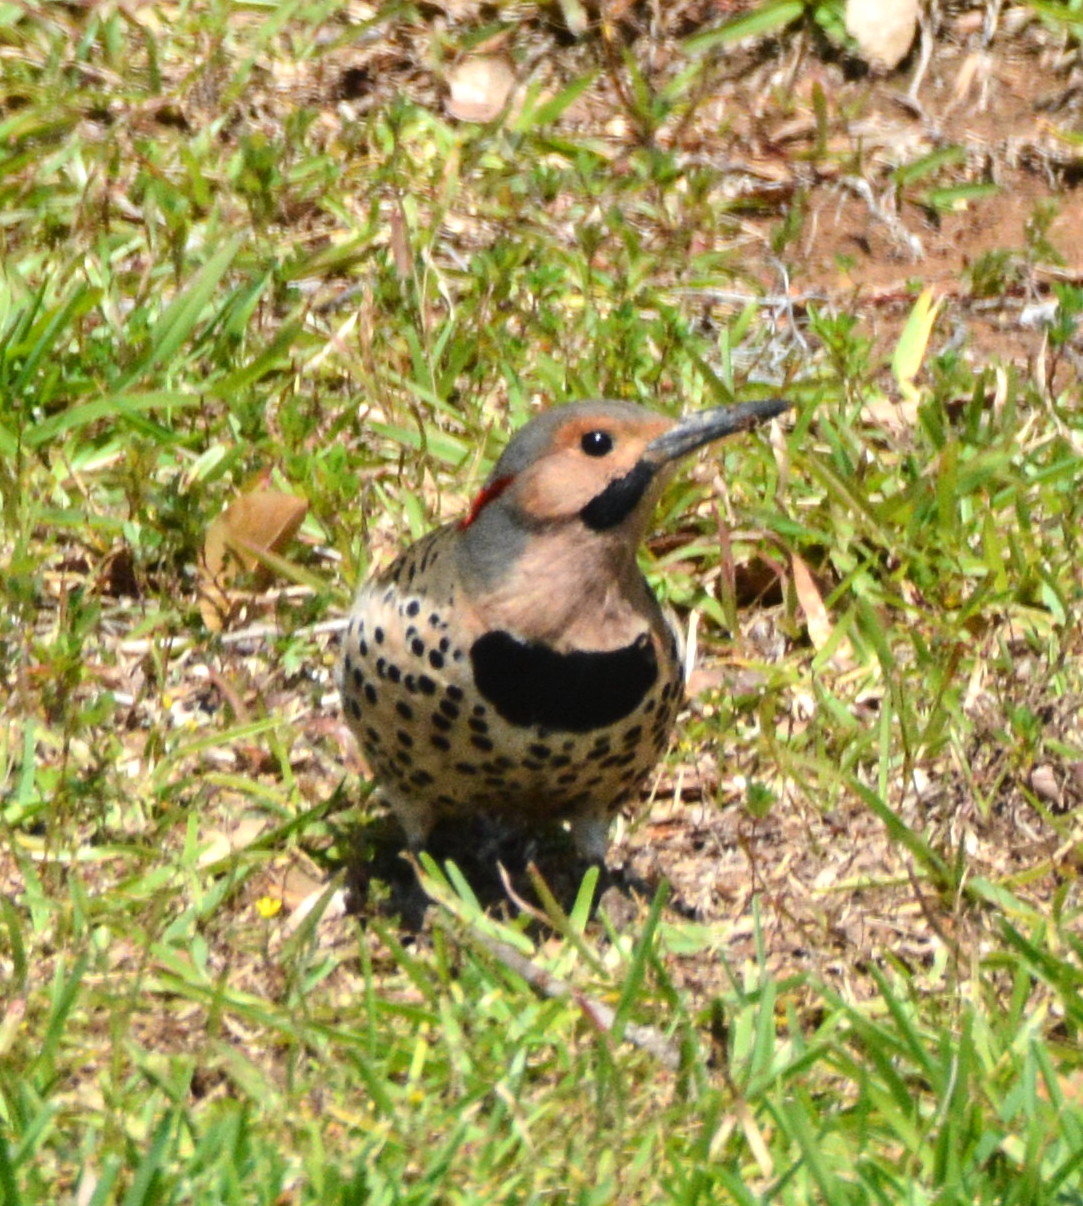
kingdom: Animalia
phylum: Chordata
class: Aves
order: Piciformes
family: Picidae
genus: Colaptes
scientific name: Colaptes auratus
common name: Northern flicker
